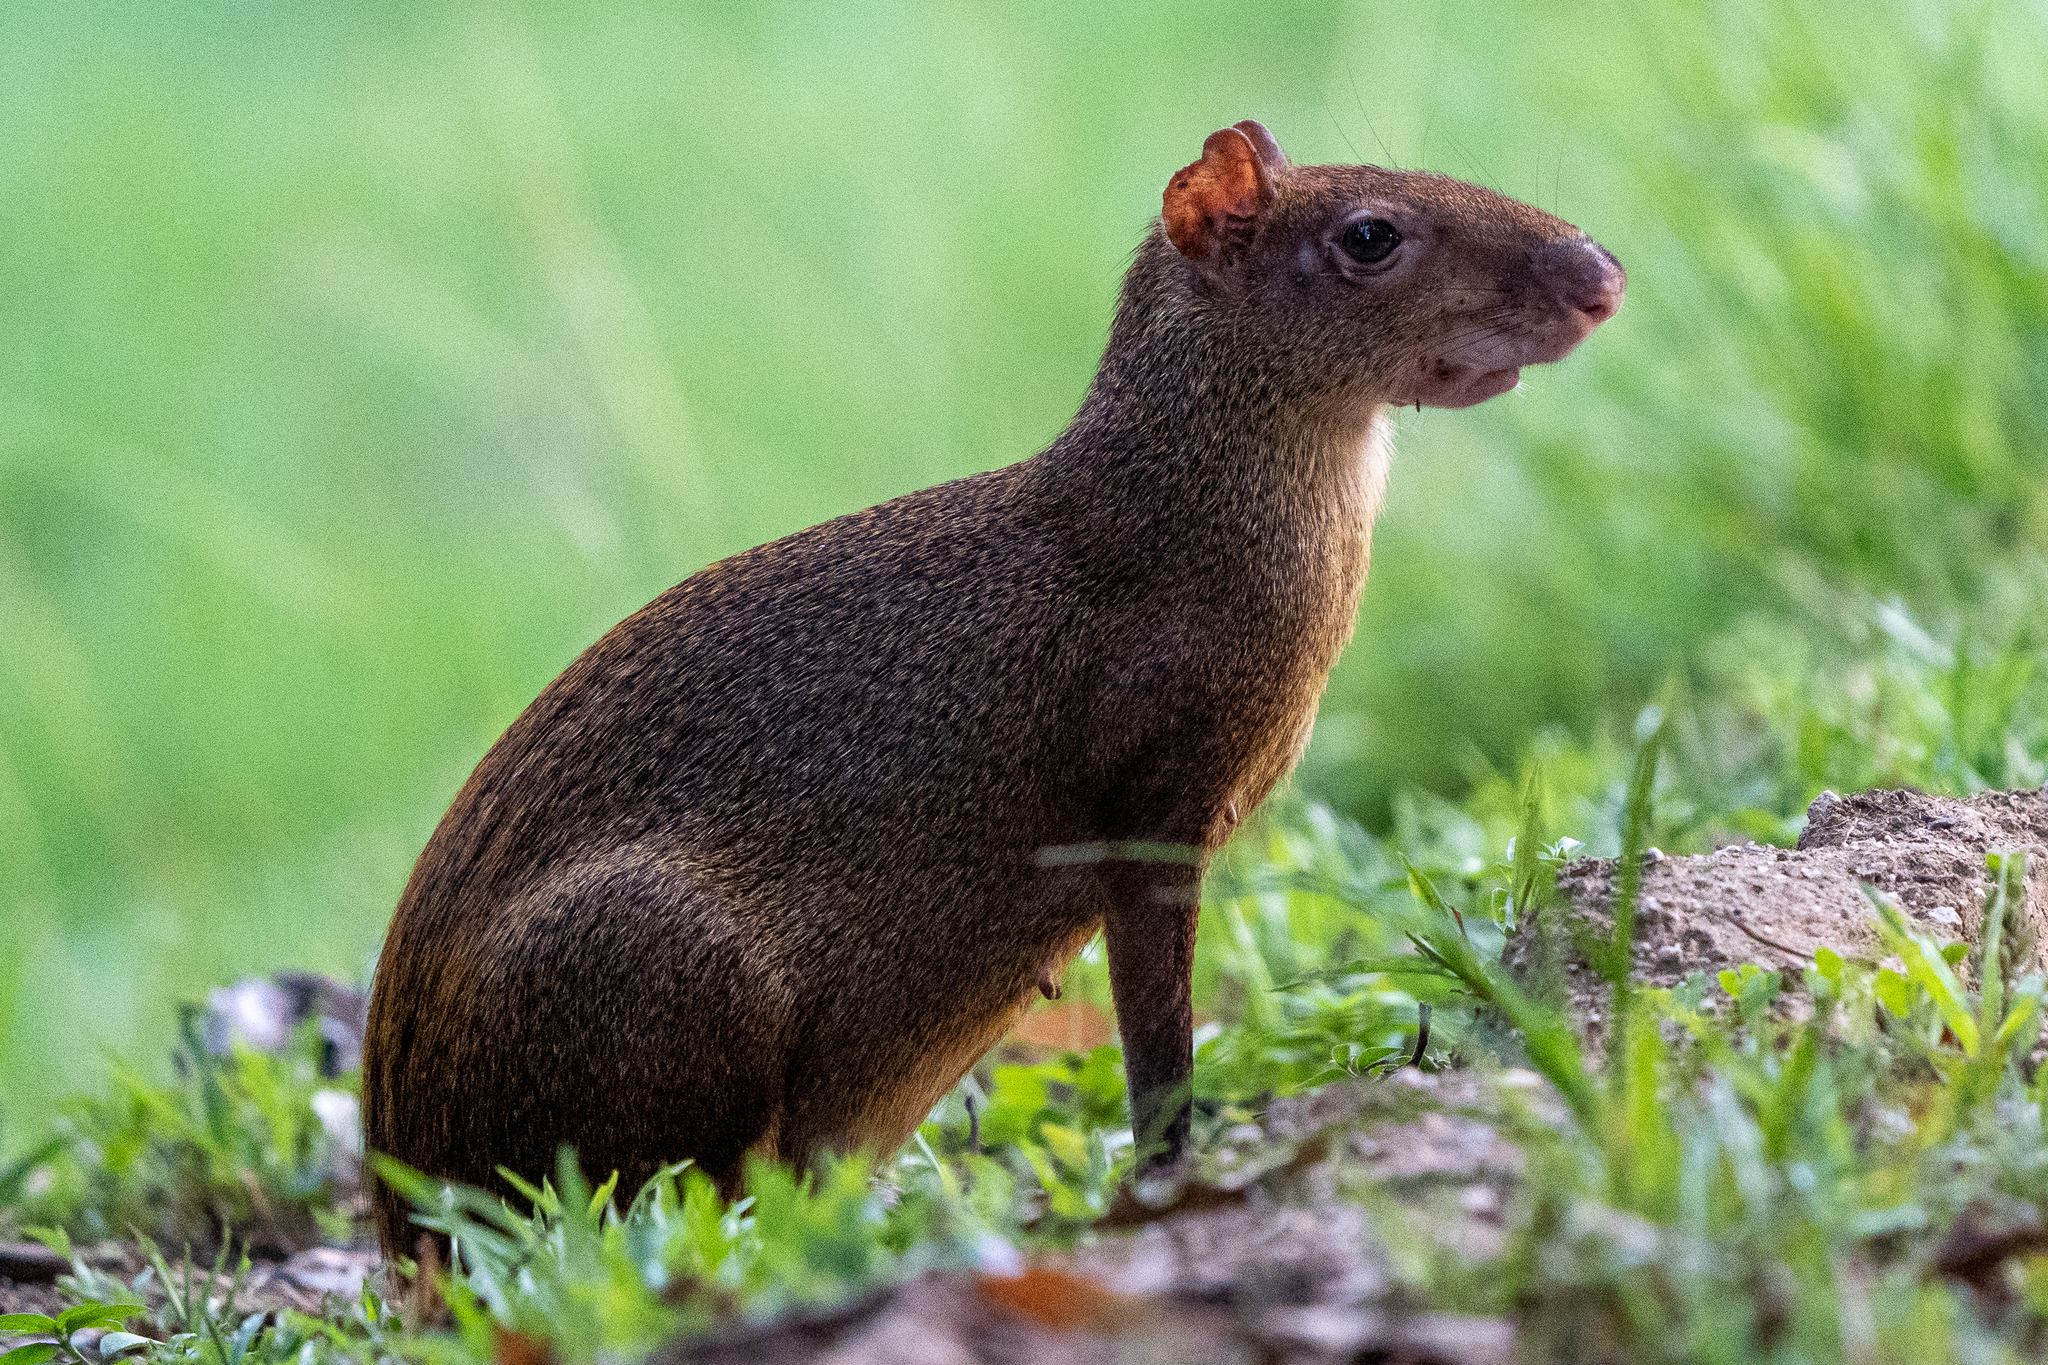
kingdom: Animalia
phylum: Chordata
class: Mammalia
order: Rodentia
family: Dasyproctidae
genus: Dasyprocta
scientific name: Dasyprocta punctata
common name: Central american agouti
